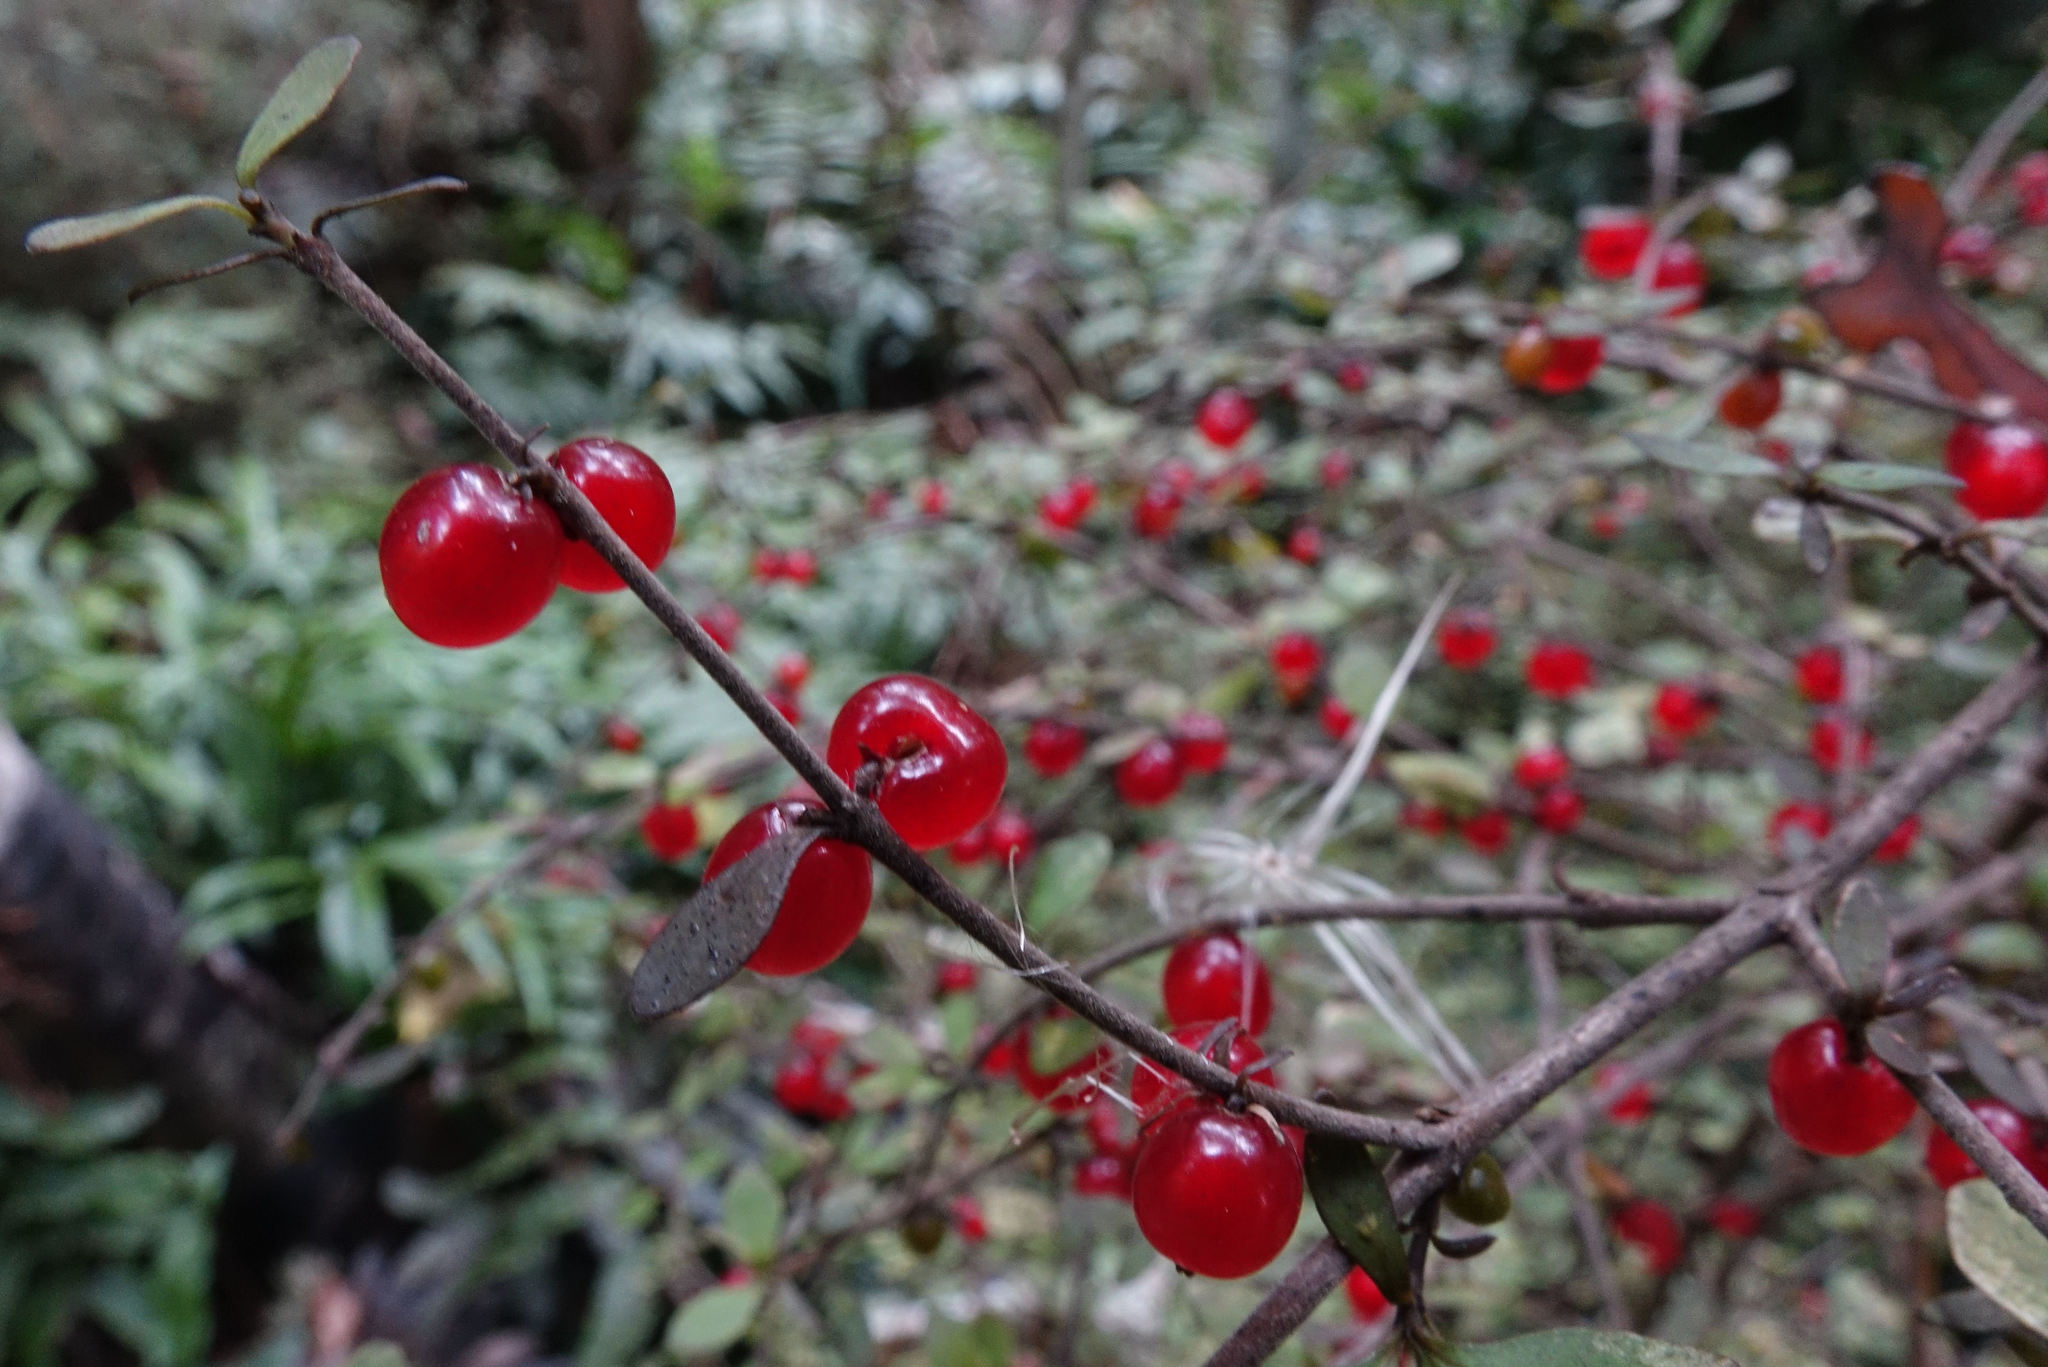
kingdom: Plantae
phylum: Tracheophyta
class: Magnoliopsida
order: Gentianales
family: Rubiaceae
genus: Coprosma
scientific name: Coprosma rhamnoides
